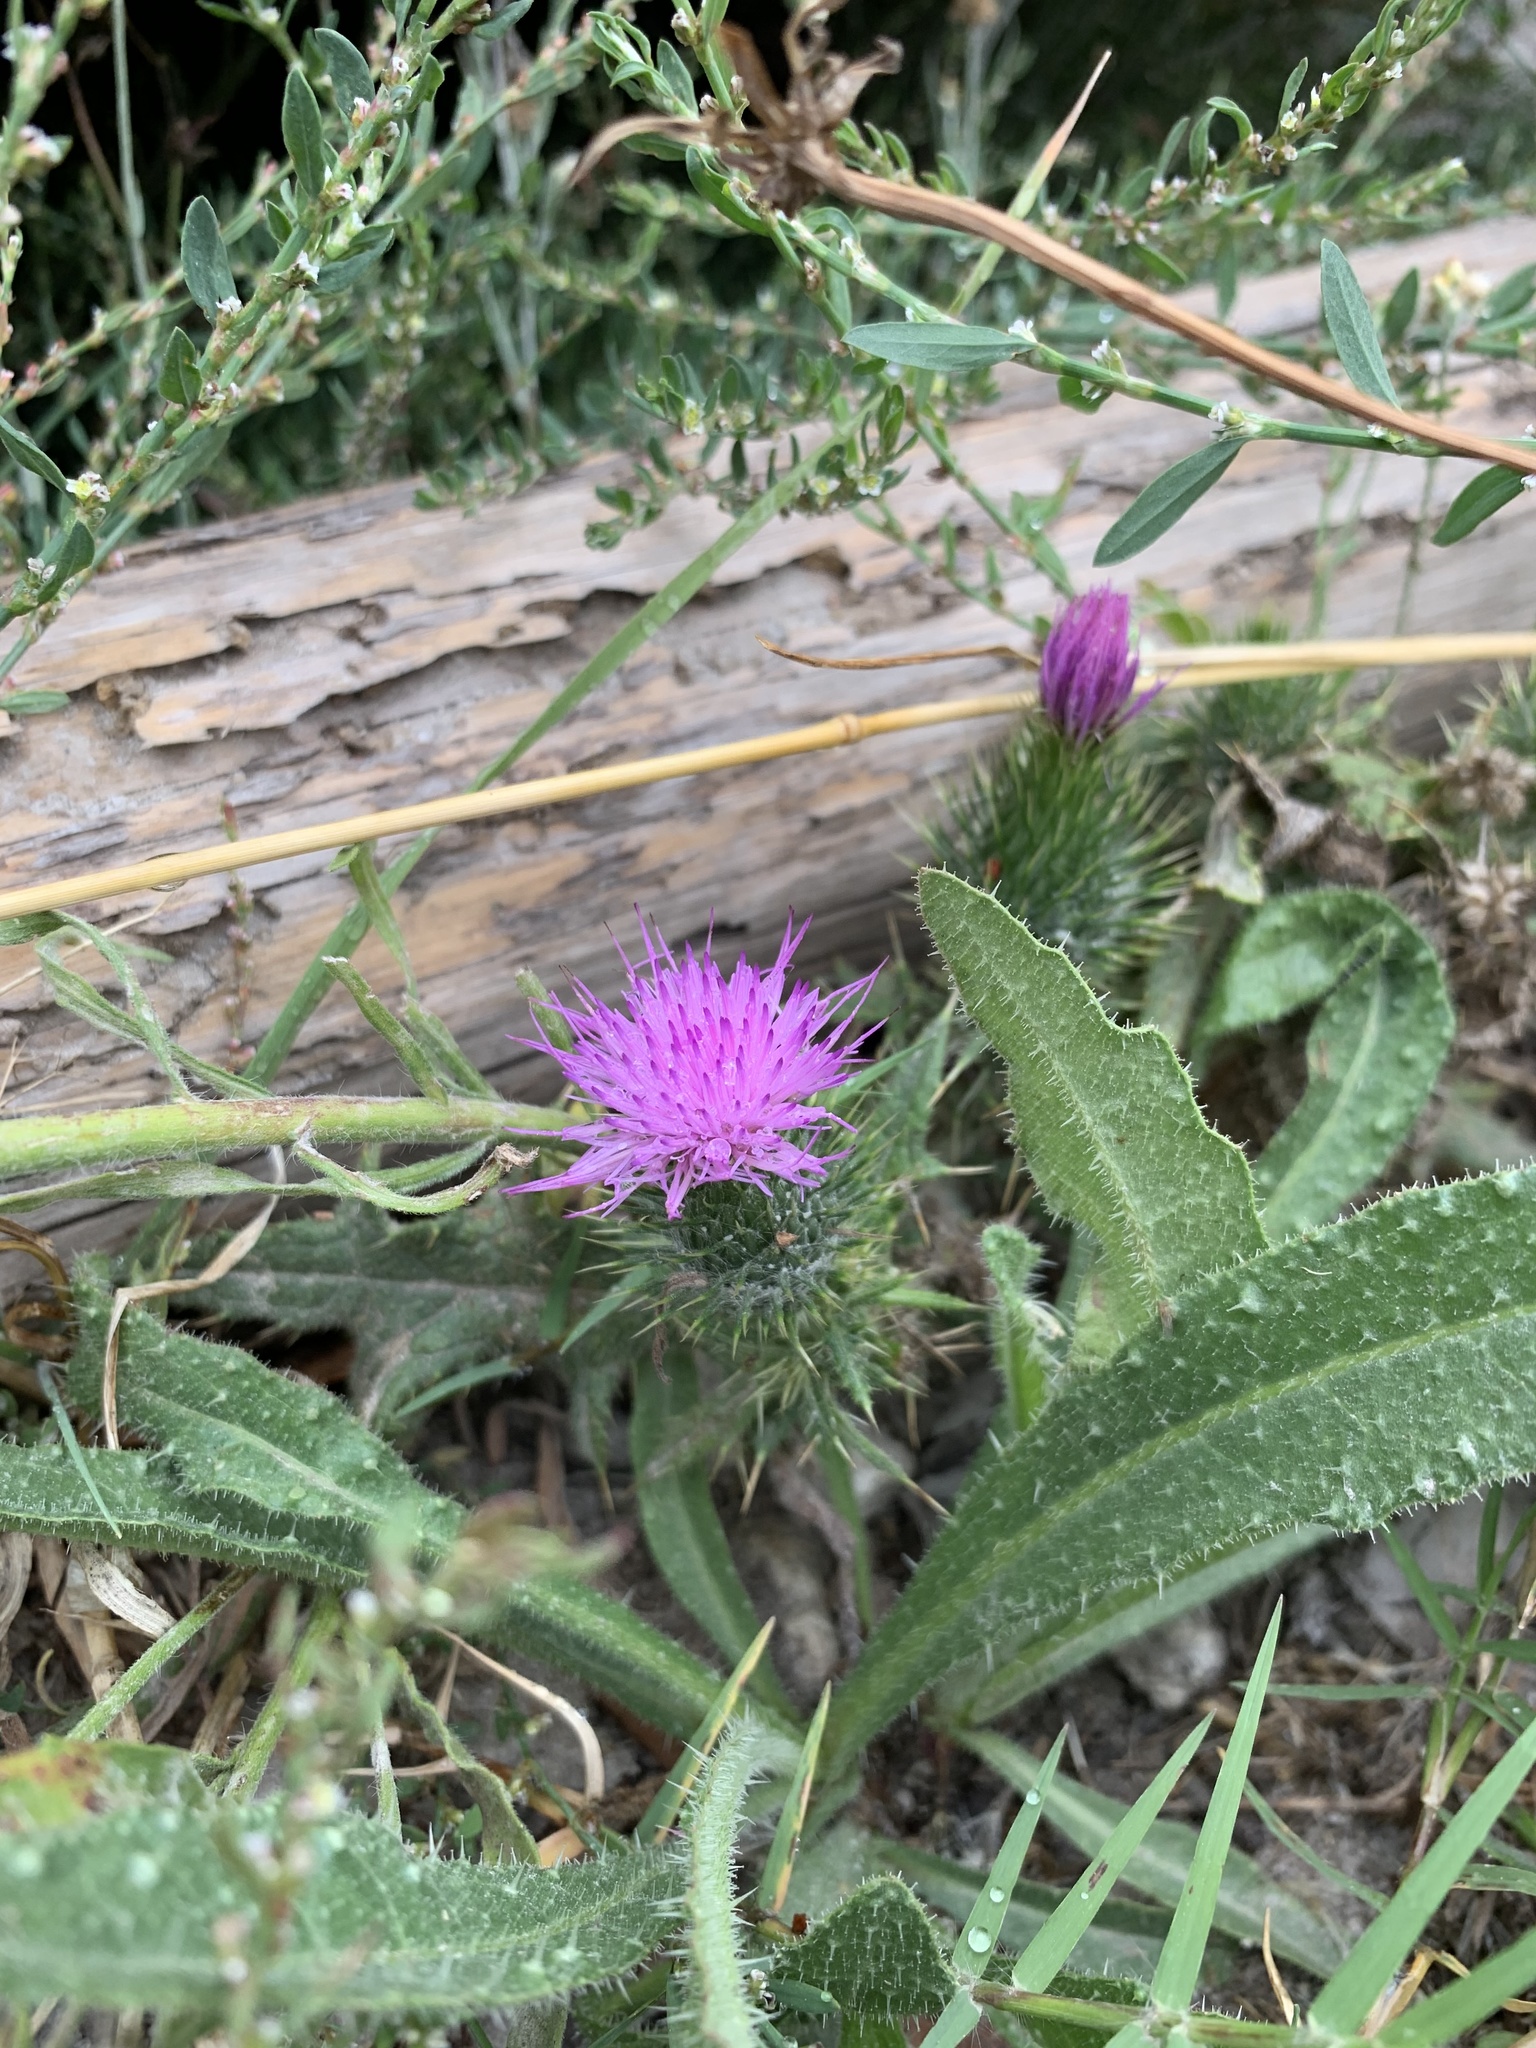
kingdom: Plantae
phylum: Tracheophyta
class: Magnoliopsida
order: Asterales
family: Asteraceae
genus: Cirsium
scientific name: Cirsium vulgare
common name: Bull thistle
